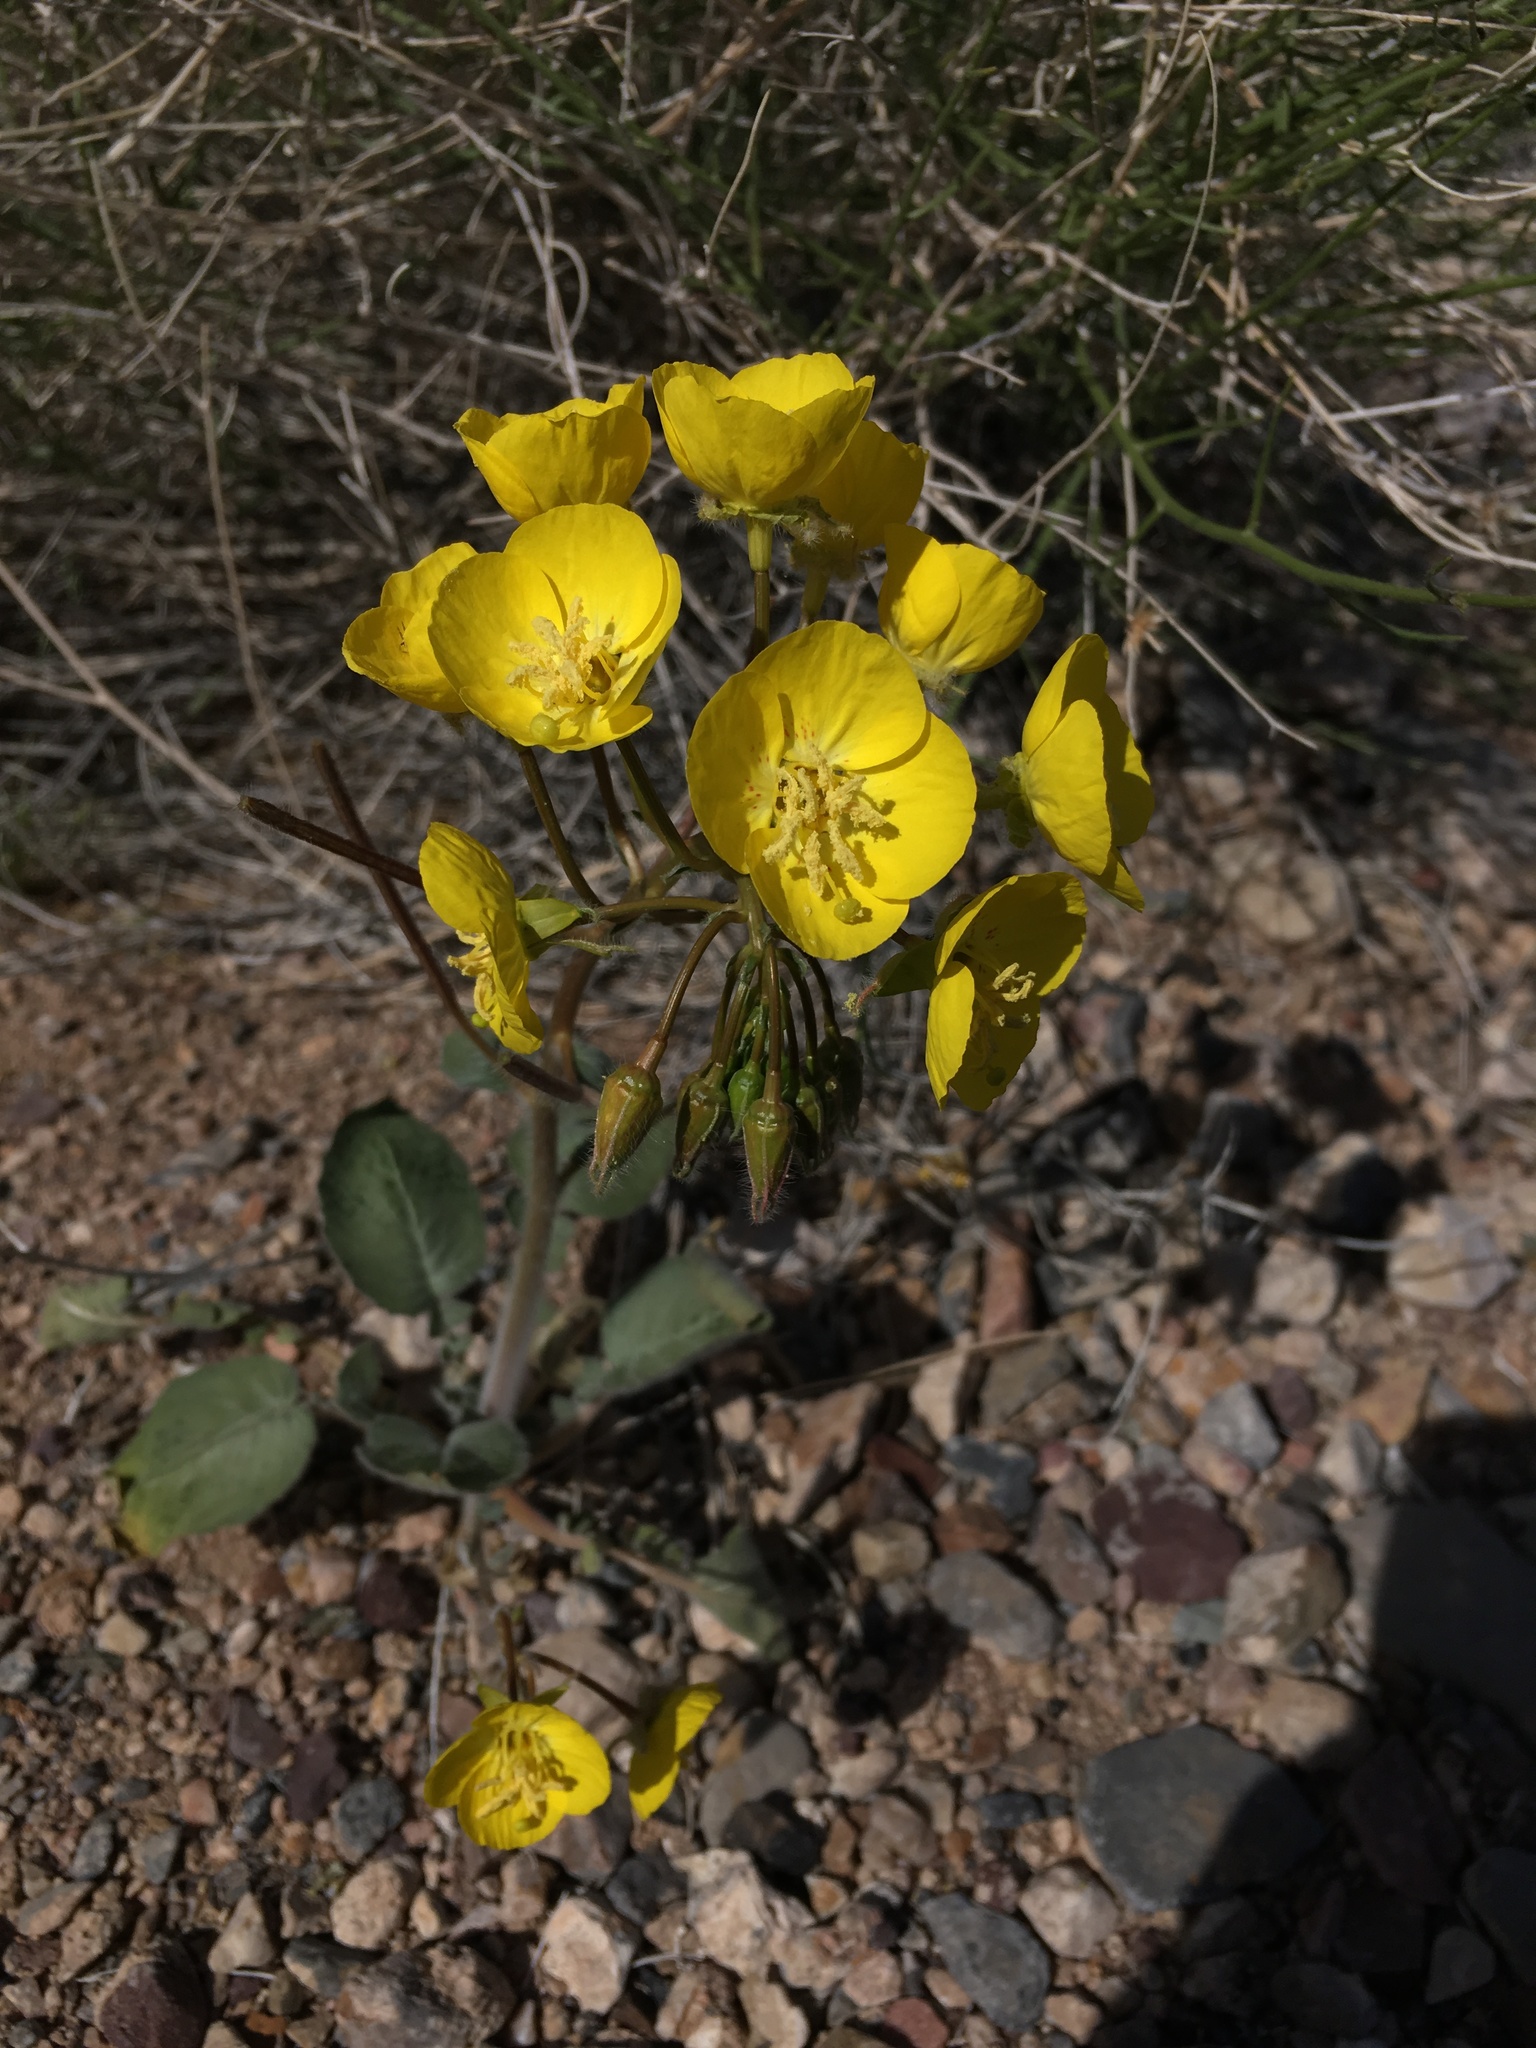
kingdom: Plantae
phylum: Tracheophyta
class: Magnoliopsida
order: Myrtales
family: Onagraceae
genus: Chylismia
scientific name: Chylismia brevipes
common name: Yellow cups
